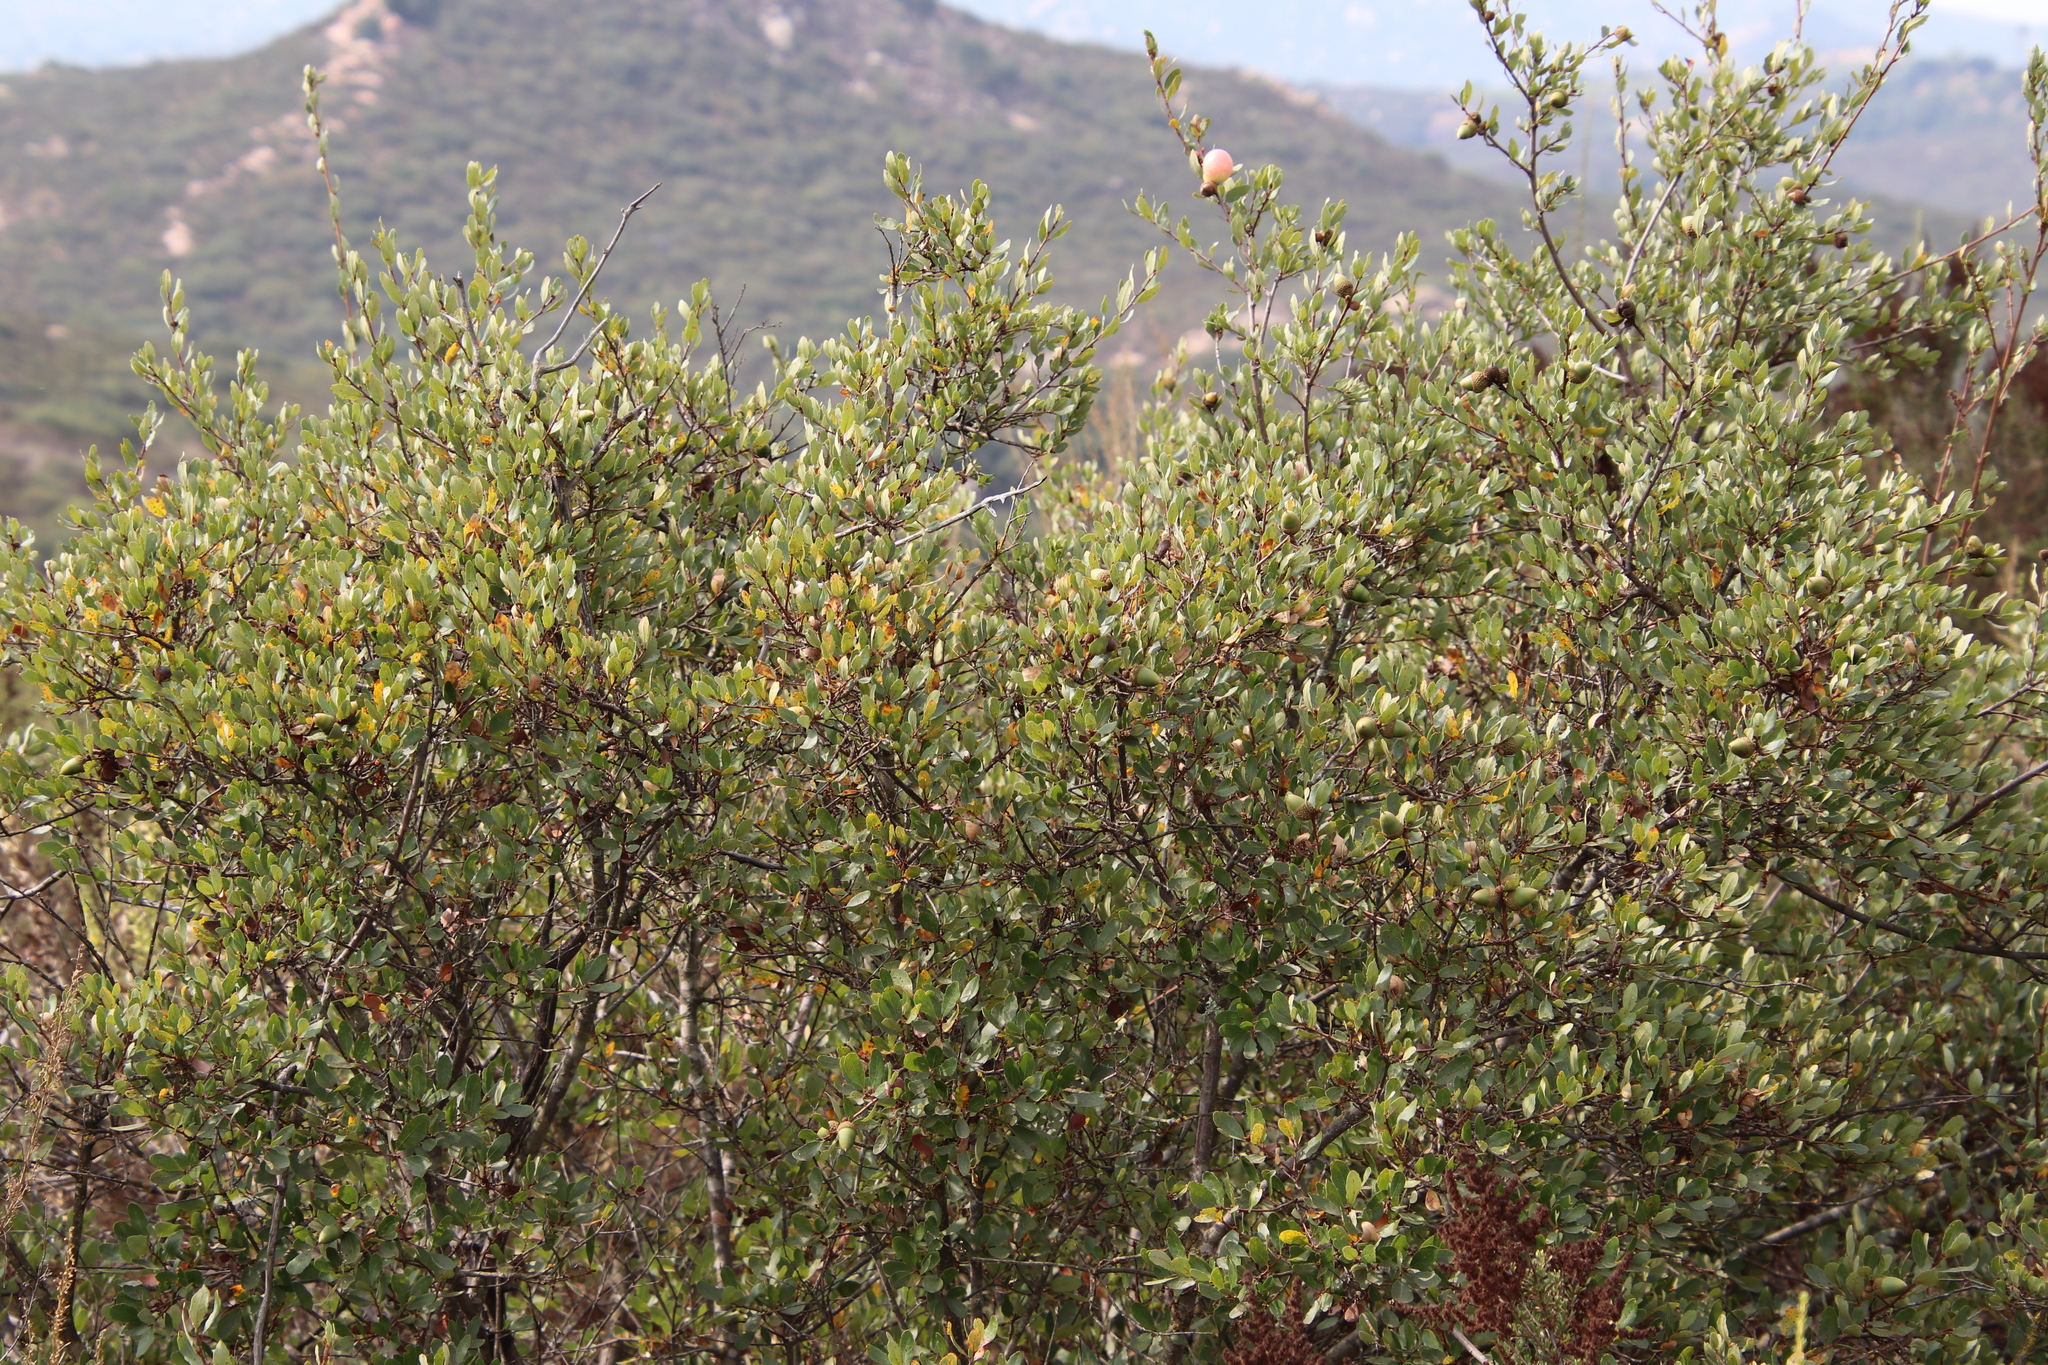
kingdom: Plantae
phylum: Tracheophyta
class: Magnoliopsida
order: Fagales
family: Fagaceae
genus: Quercus
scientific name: Quercus berberidifolia
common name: California scrub oak
